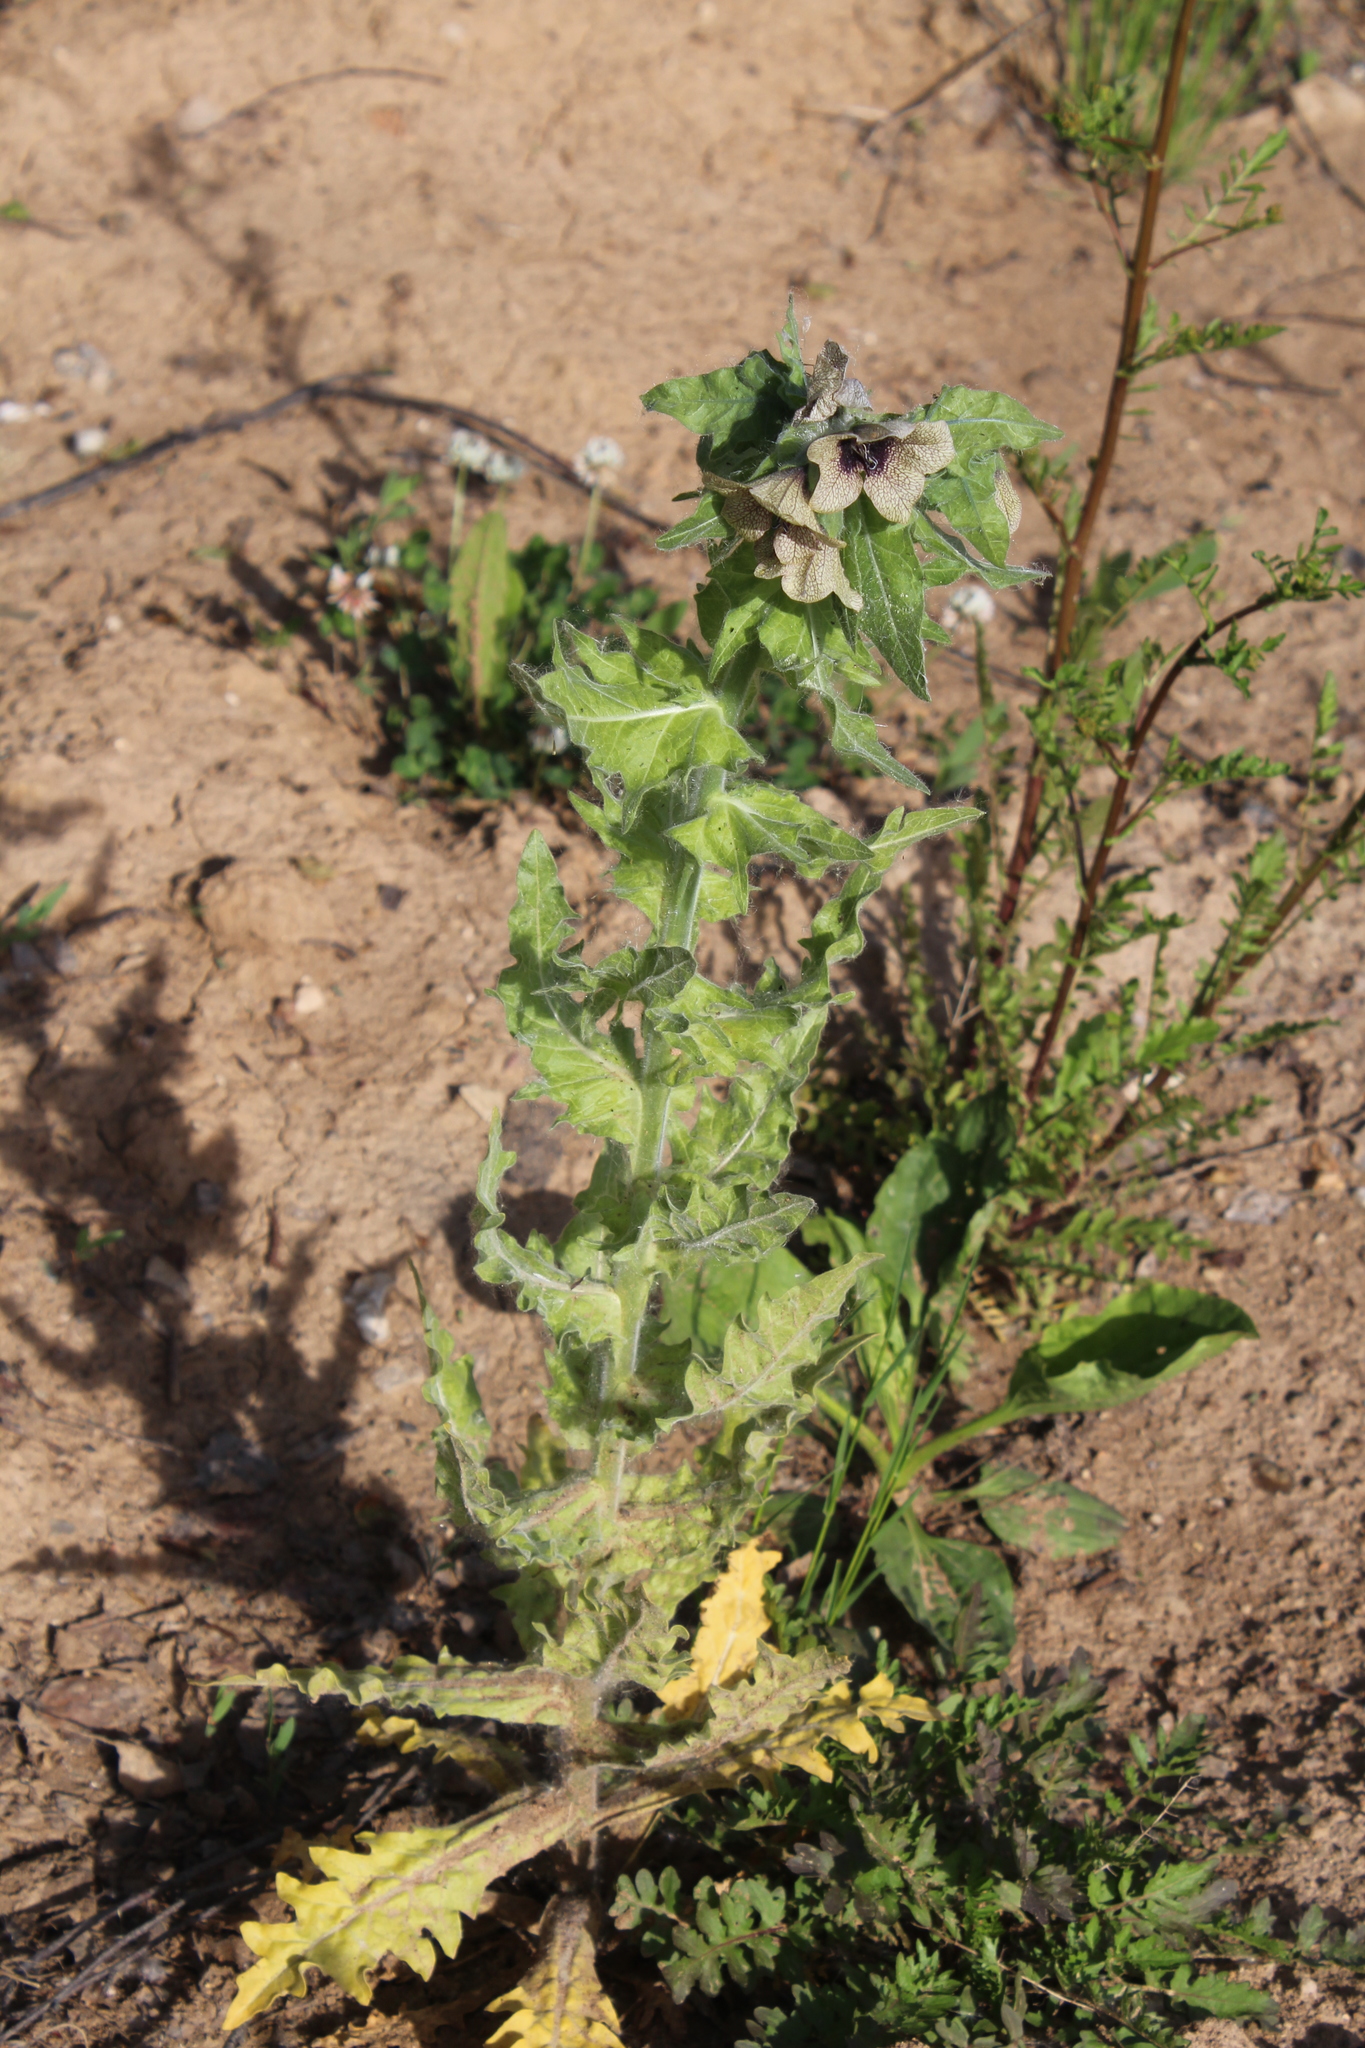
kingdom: Plantae
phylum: Tracheophyta
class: Magnoliopsida
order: Solanales
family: Solanaceae
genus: Hyoscyamus
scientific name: Hyoscyamus niger
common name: Henbane
